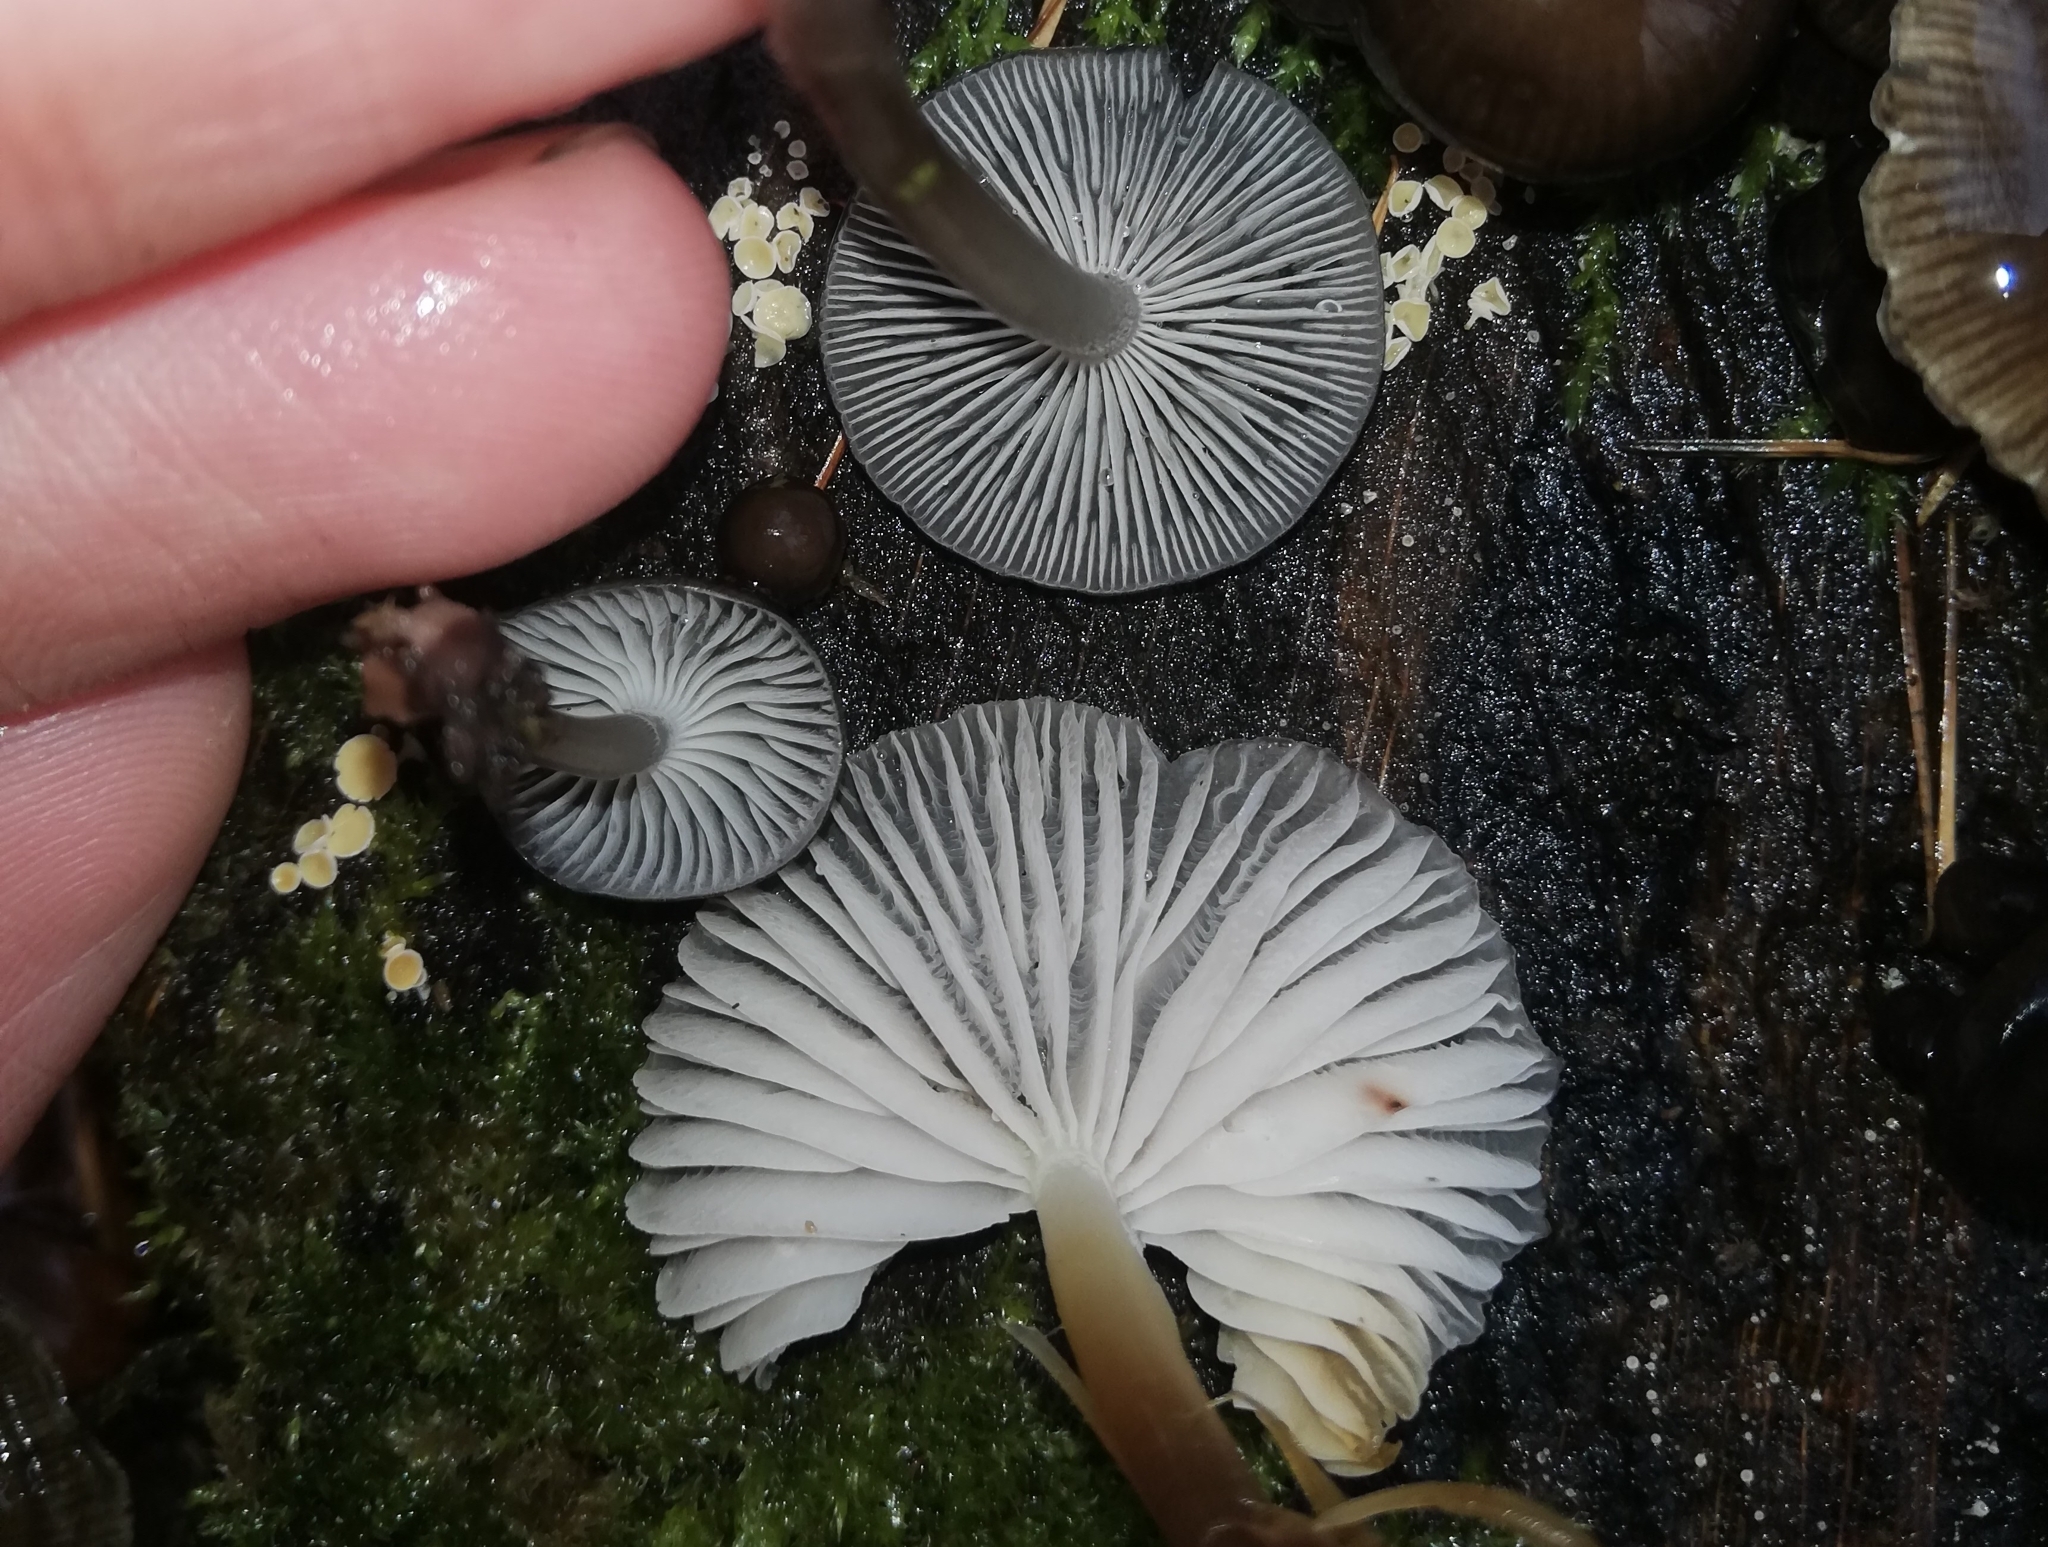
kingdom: Fungi
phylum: Basidiomycota
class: Agaricomycetes
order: Agaricales
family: Mycenaceae
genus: Mycena
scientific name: Mycena tintinnabulum
